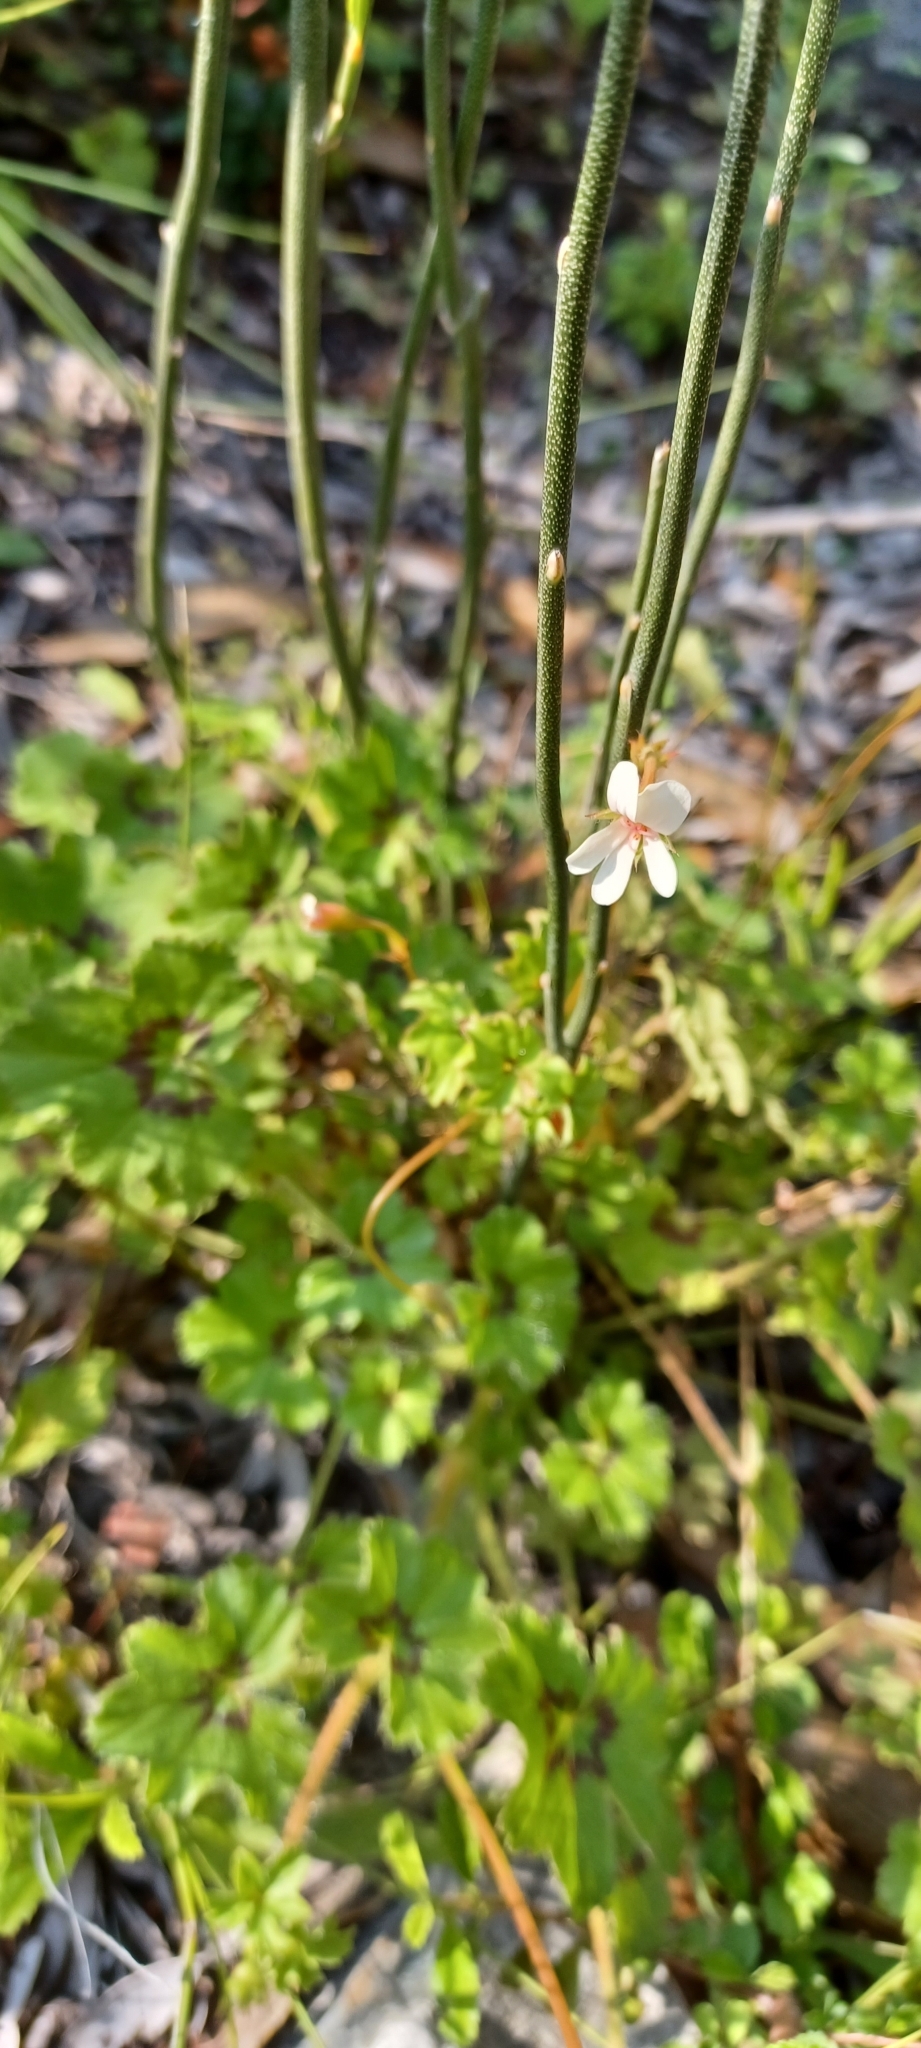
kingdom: Plantae
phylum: Tracheophyta
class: Magnoliopsida
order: Geraniales
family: Geraniaceae
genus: Pelargonium
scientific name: Pelargonium elongatum
